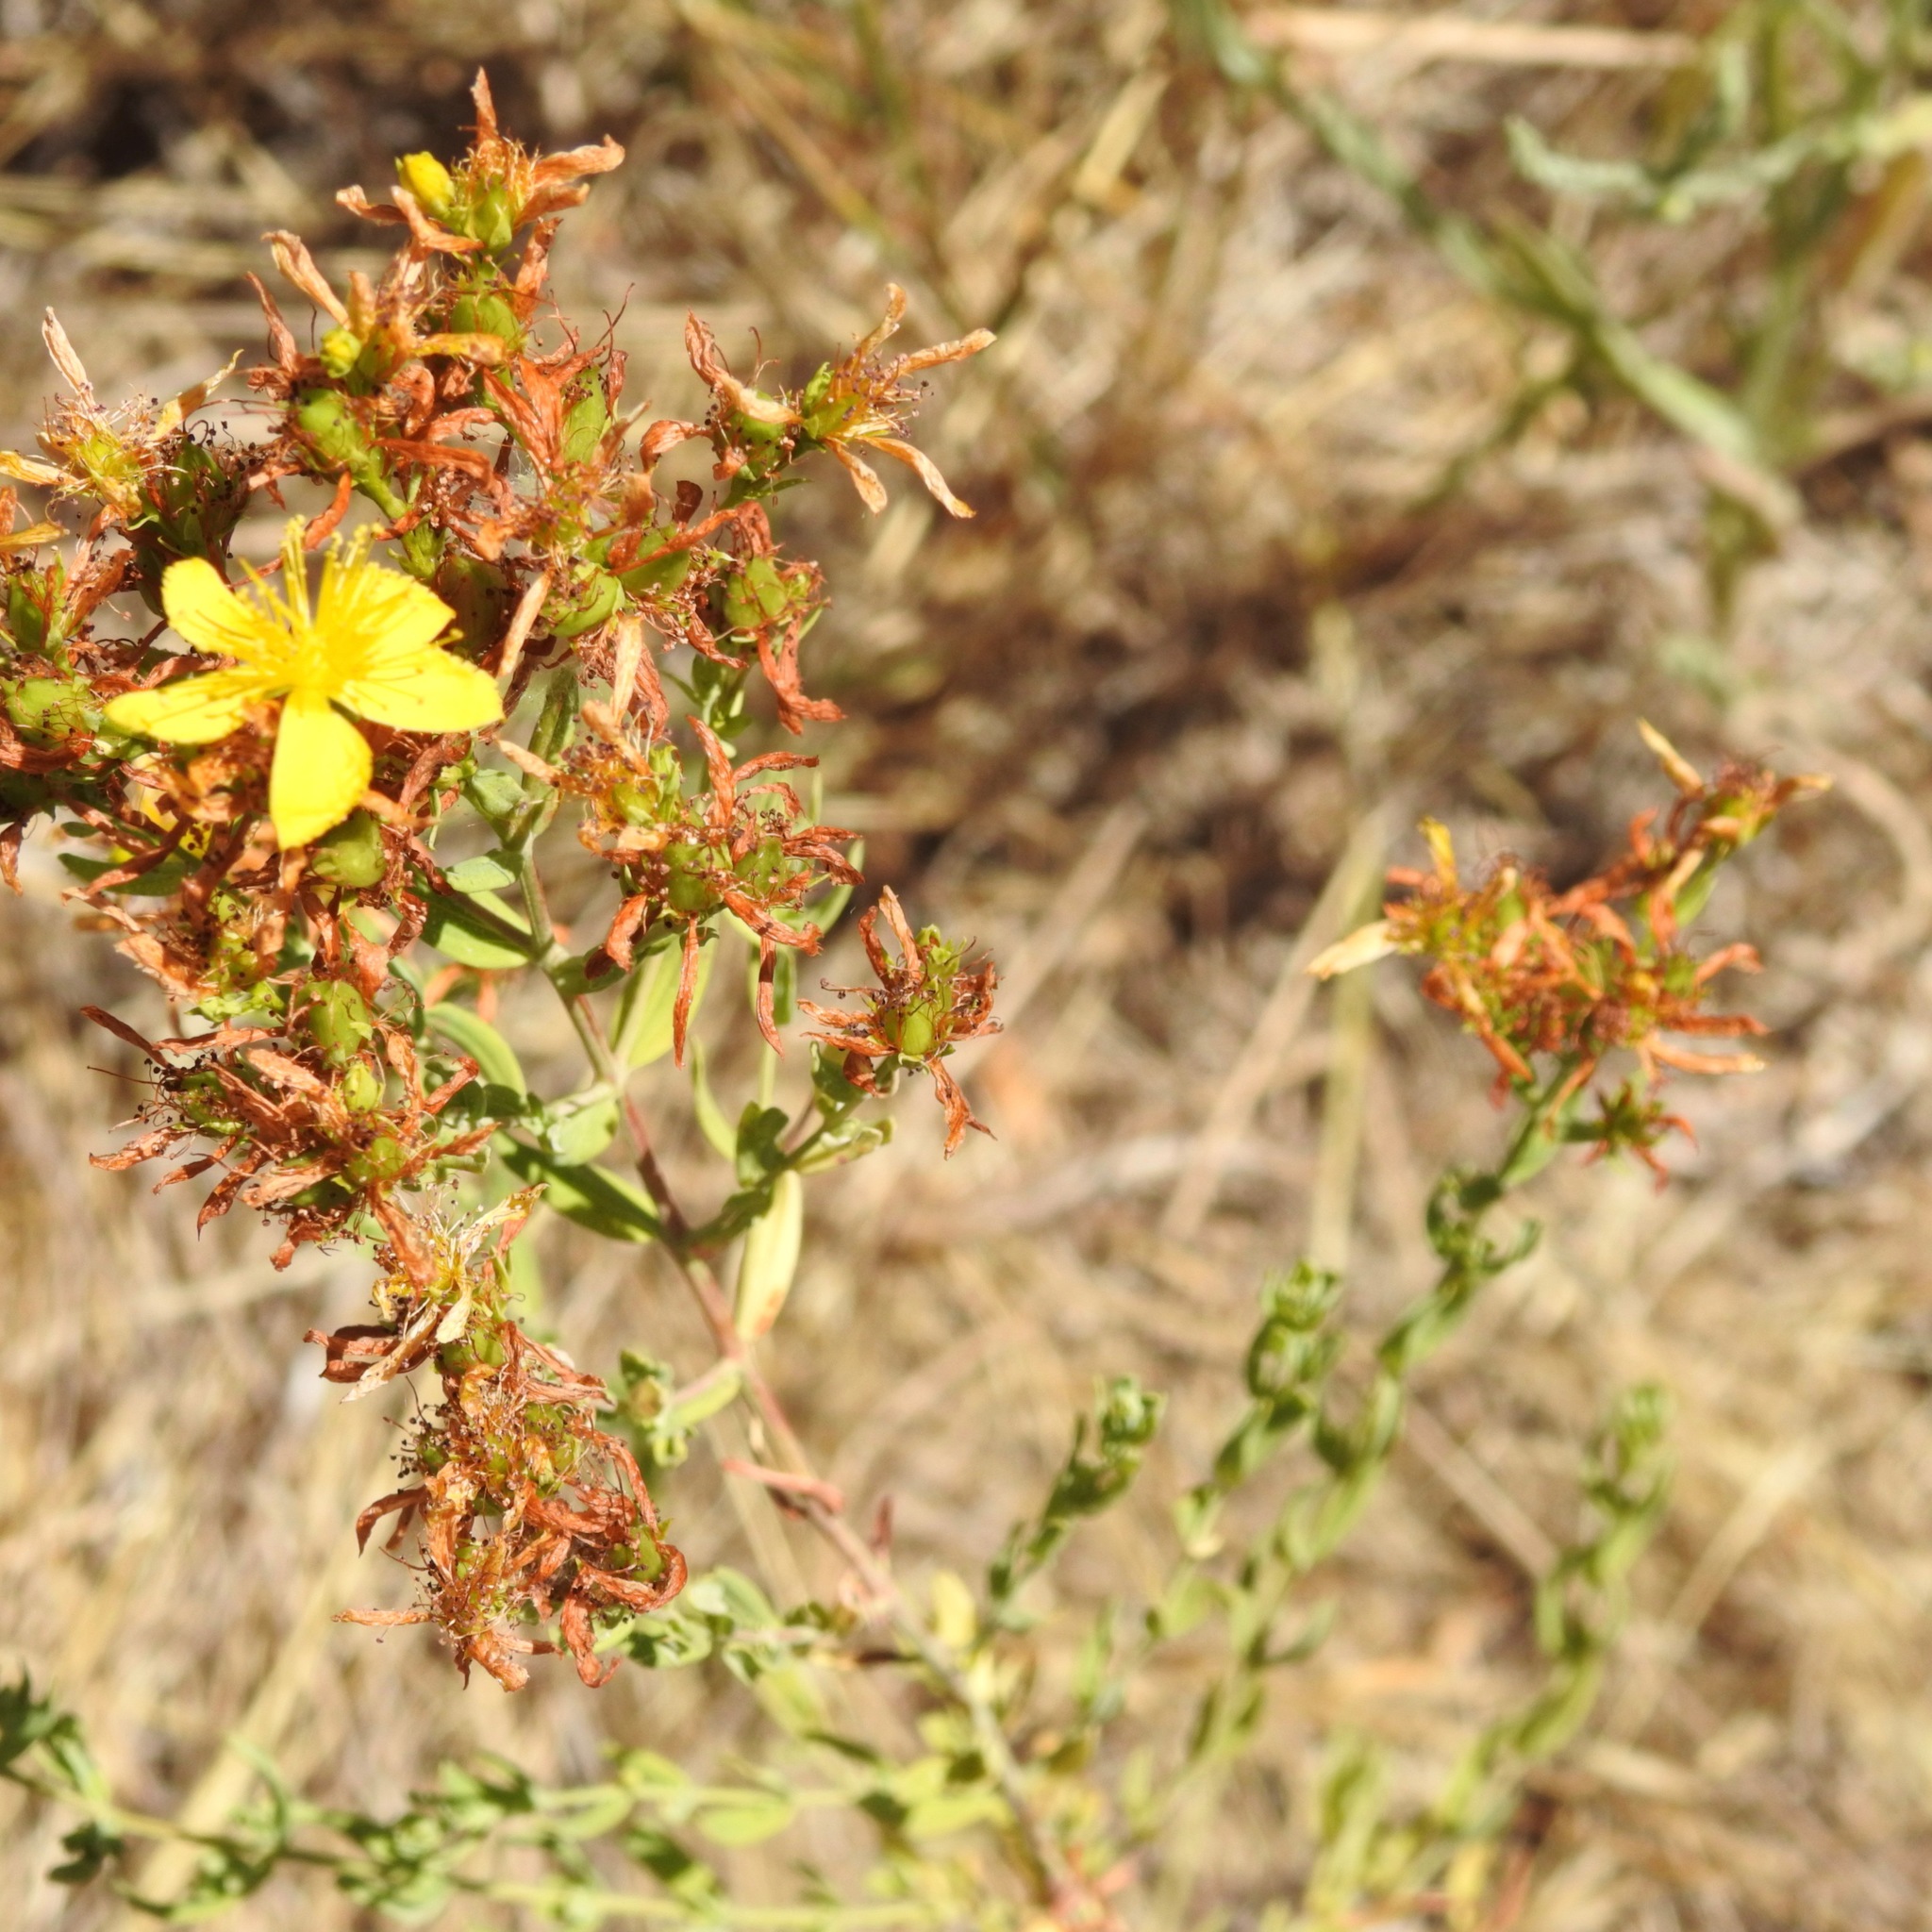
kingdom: Plantae
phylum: Tracheophyta
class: Magnoliopsida
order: Malpighiales
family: Hypericaceae
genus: Hypericum
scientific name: Hypericum perforatum
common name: Common st. johnswort
